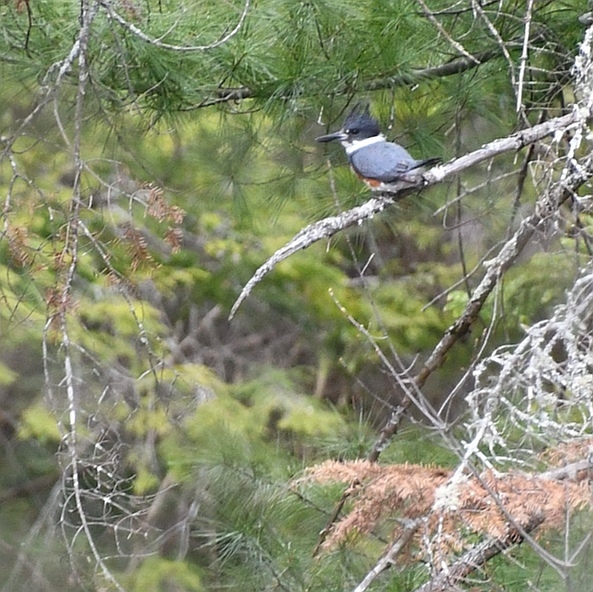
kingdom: Animalia
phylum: Chordata
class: Aves
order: Coraciiformes
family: Alcedinidae
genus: Megaceryle
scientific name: Megaceryle alcyon
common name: Belted kingfisher
